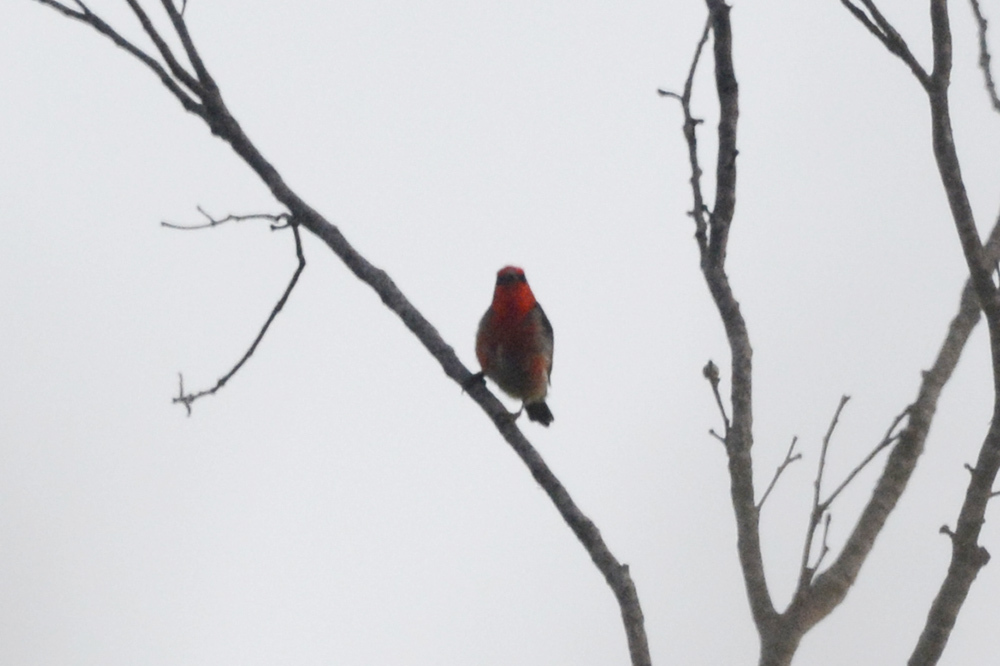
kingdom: Animalia
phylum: Chordata
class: Aves
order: Passeriformes
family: Meliphagidae
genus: Myzomela
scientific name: Myzomela sanguinolenta
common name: Scarlet myzomela
